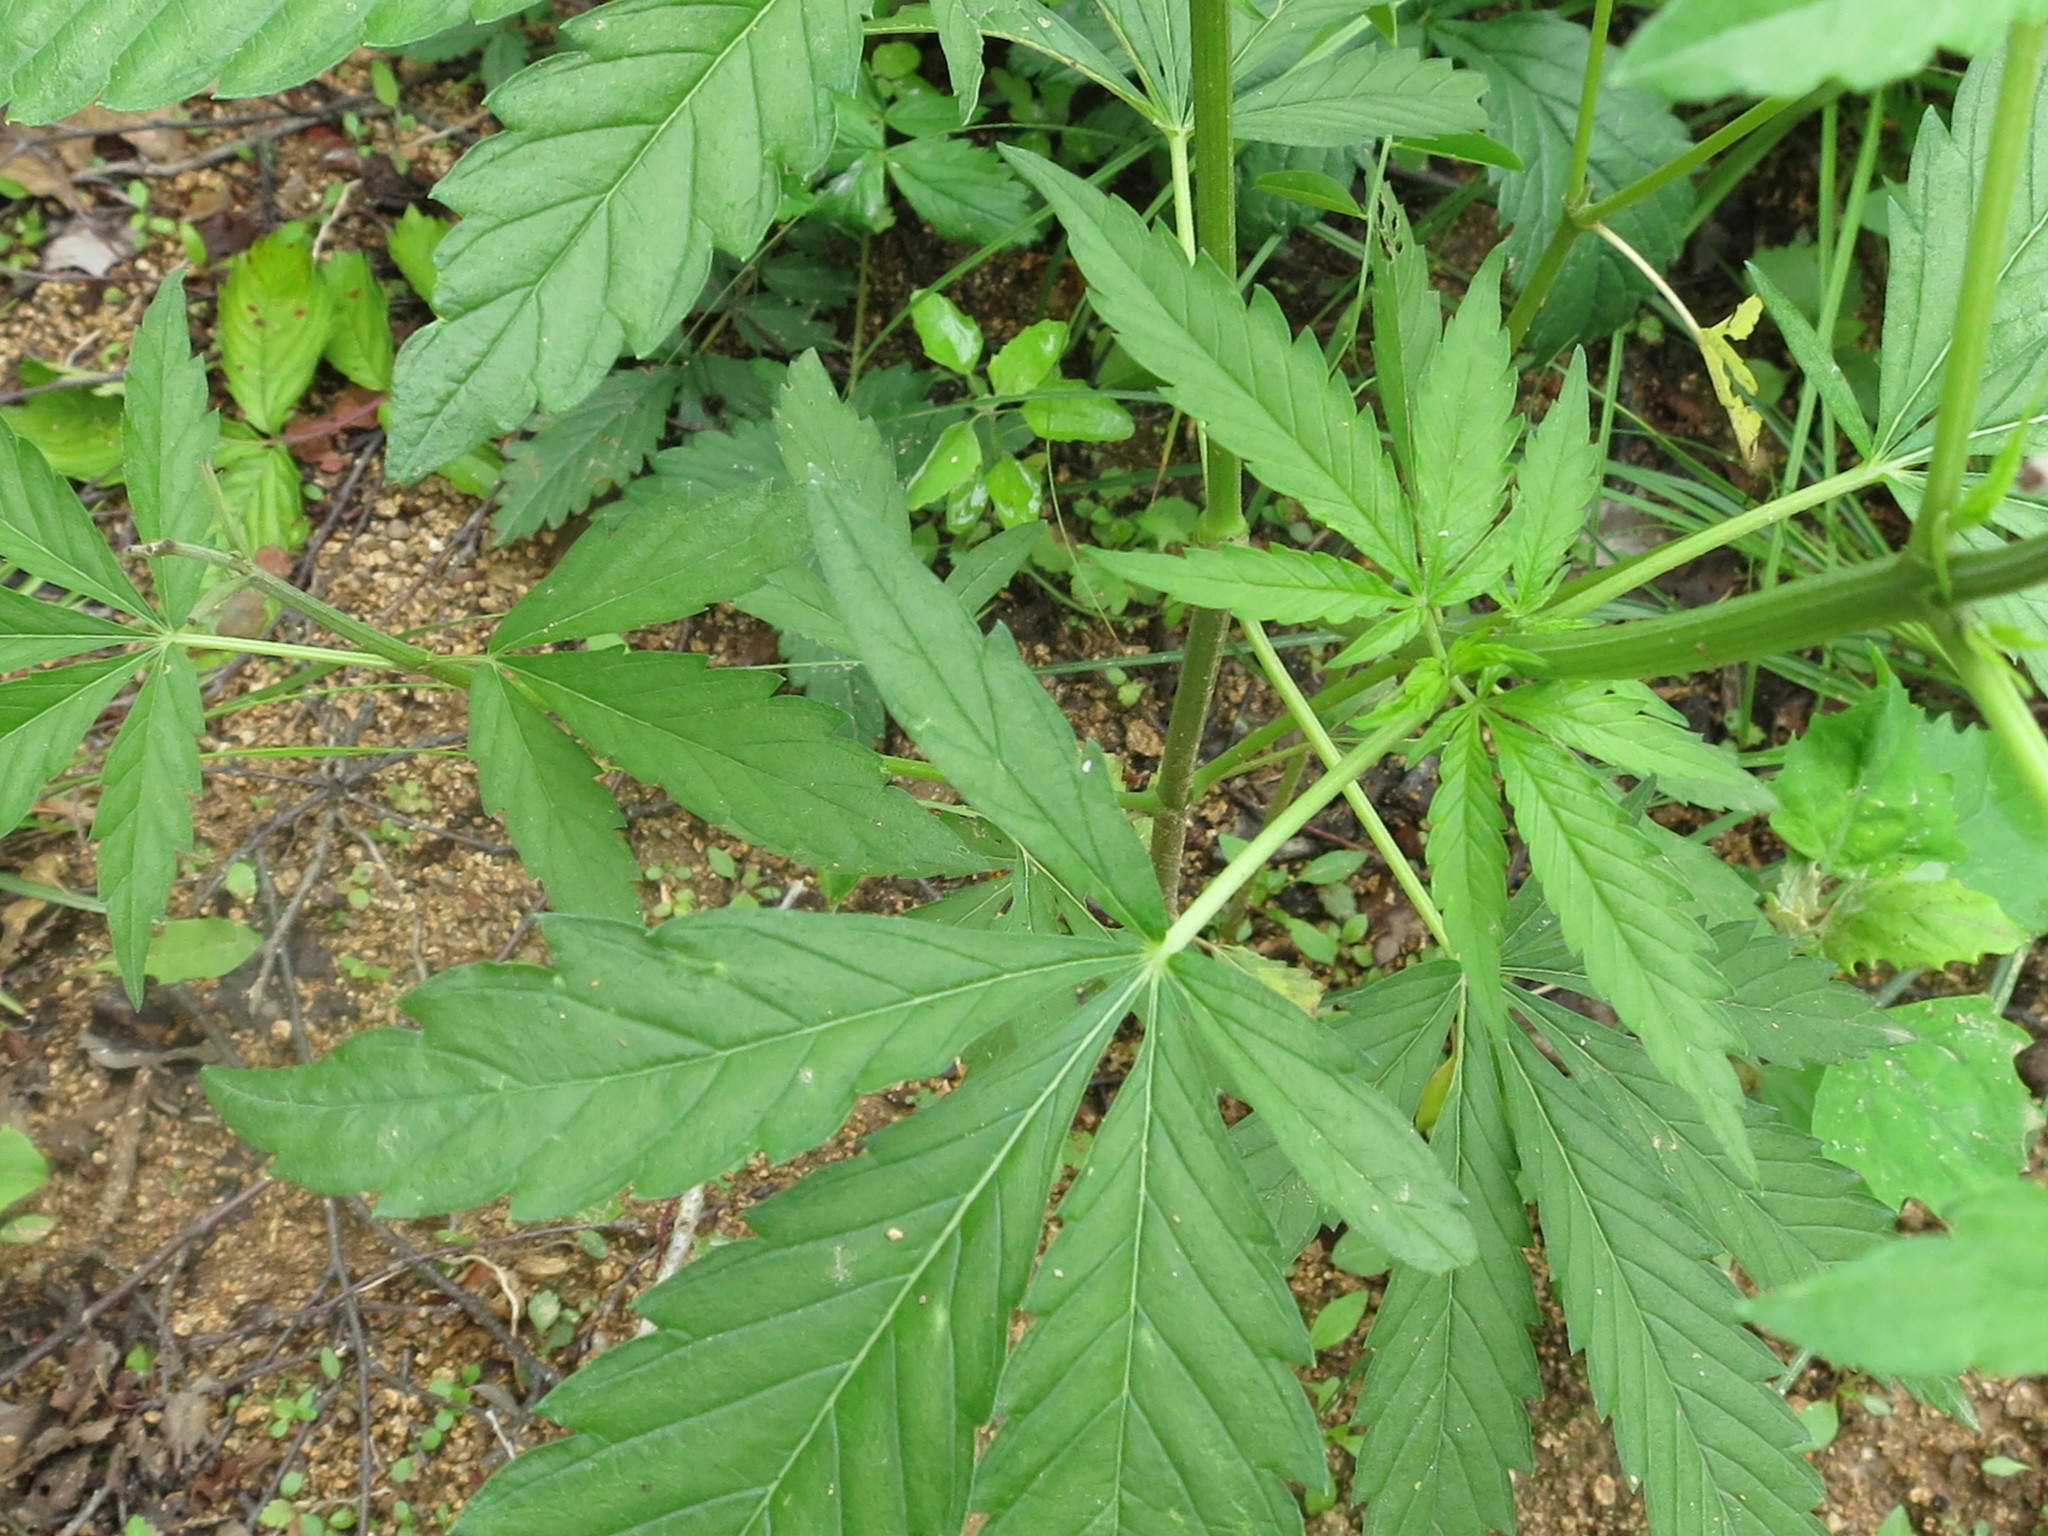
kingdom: Plantae
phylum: Tracheophyta
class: Magnoliopsida
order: Rosales
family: Cannabaceae
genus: Cannabis
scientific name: Cannabis sativa
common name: Hemp
